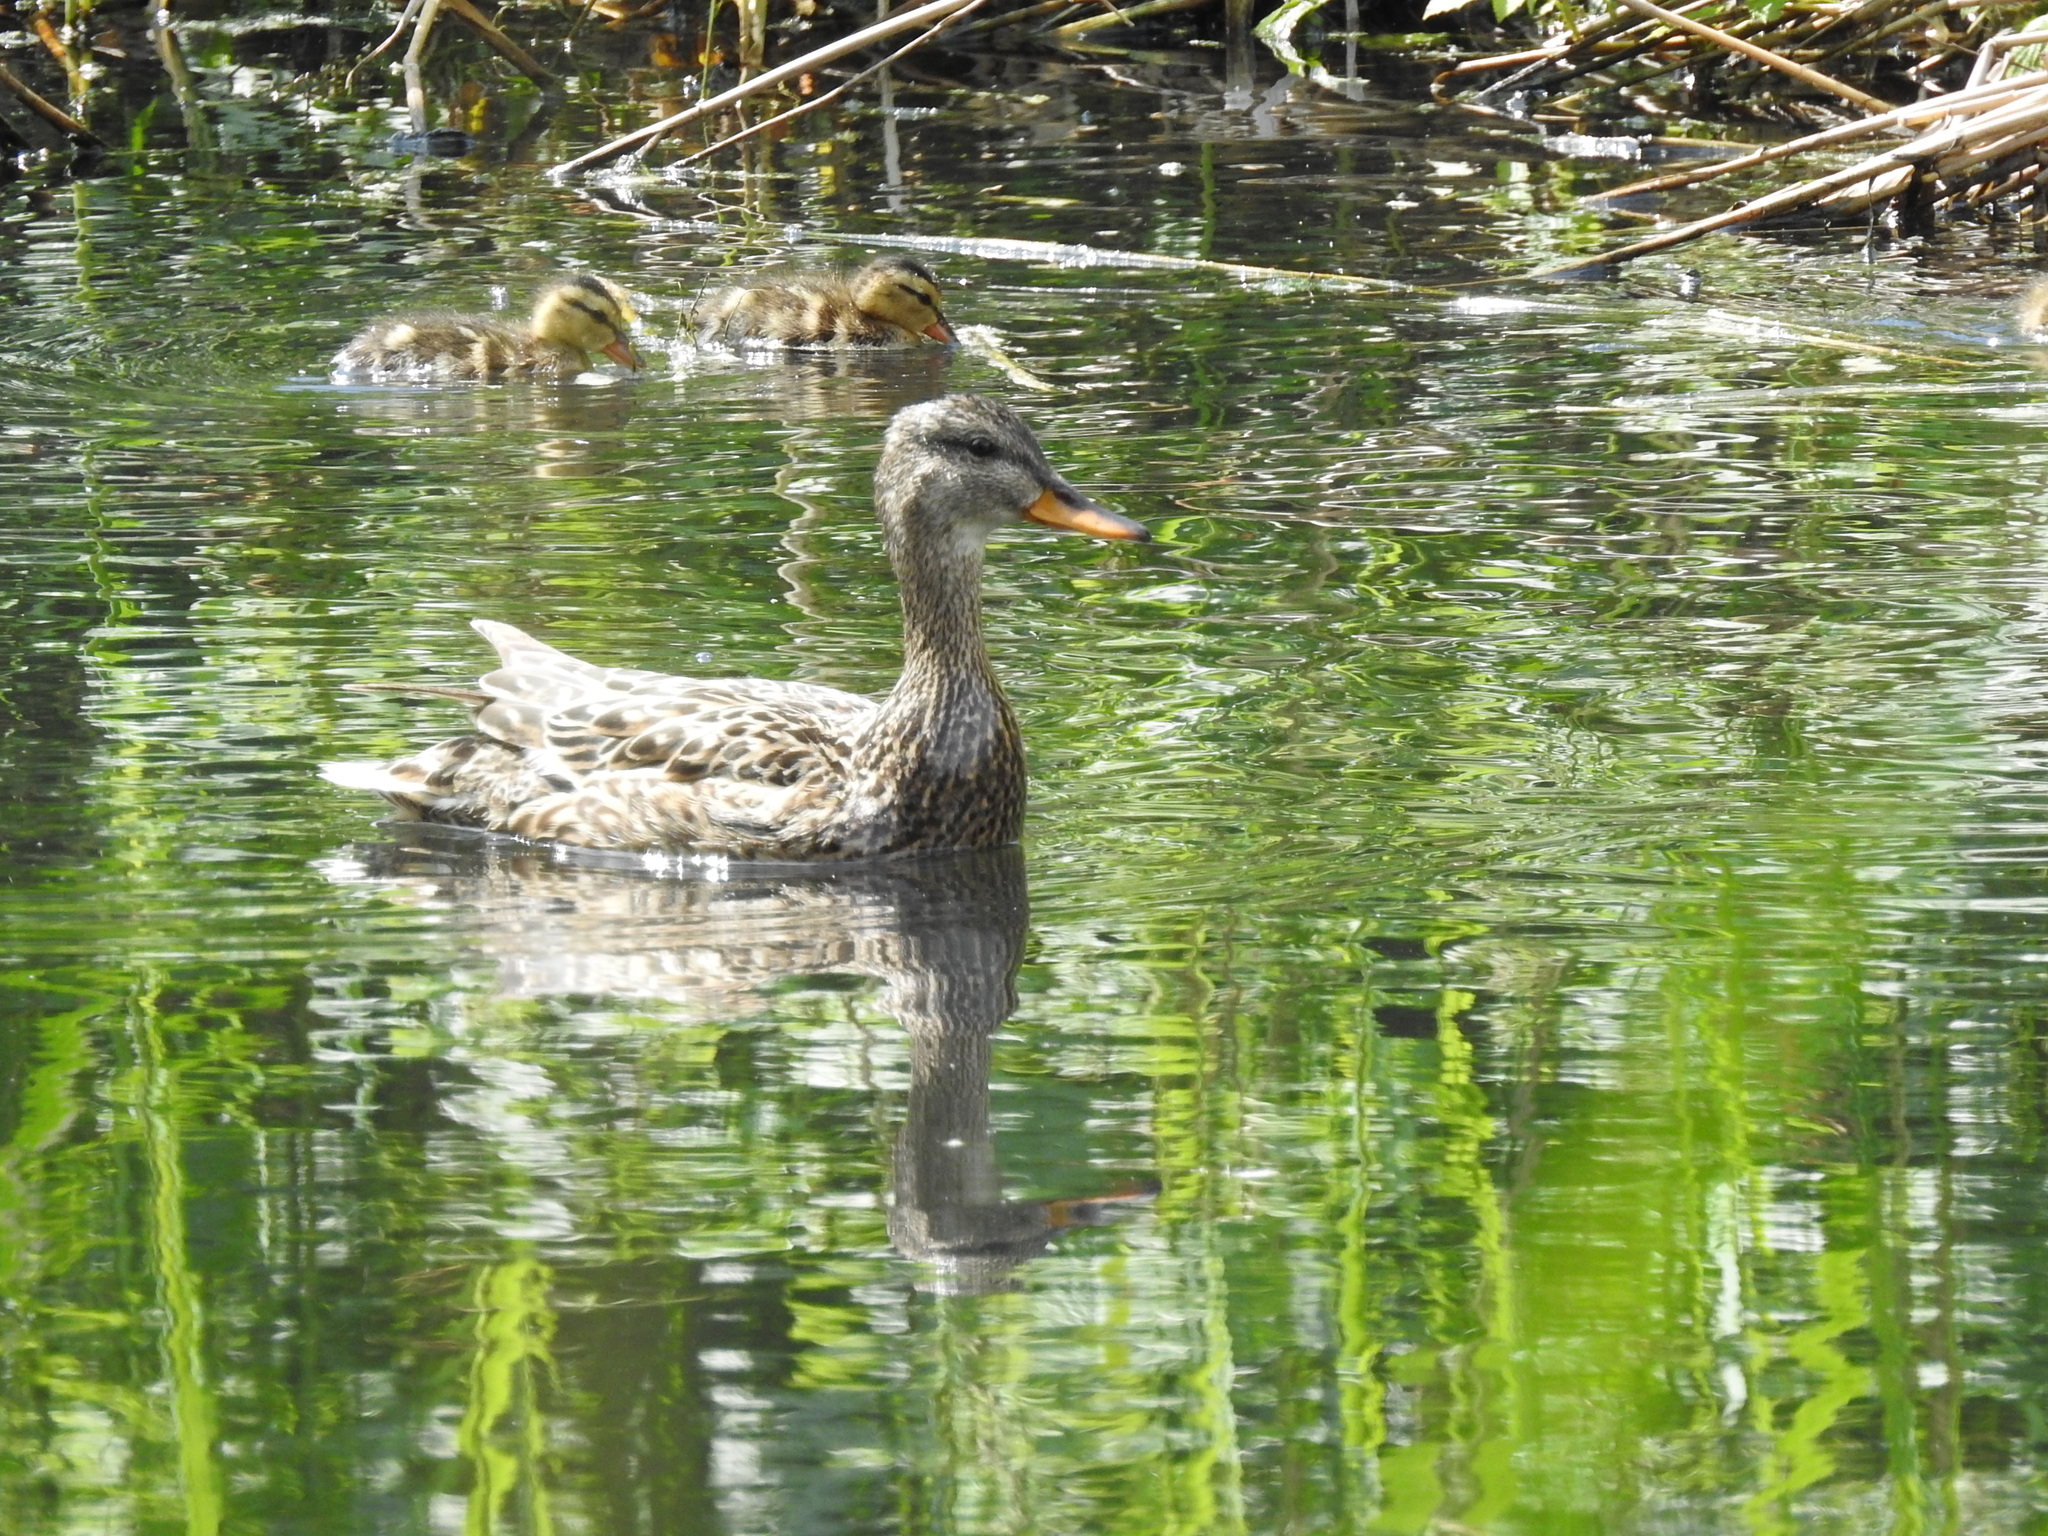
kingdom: Animalia
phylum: Chordata
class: Aves
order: Anseriformes
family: Anatidae
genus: Mareca
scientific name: Mareca strepera
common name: Gadwall
